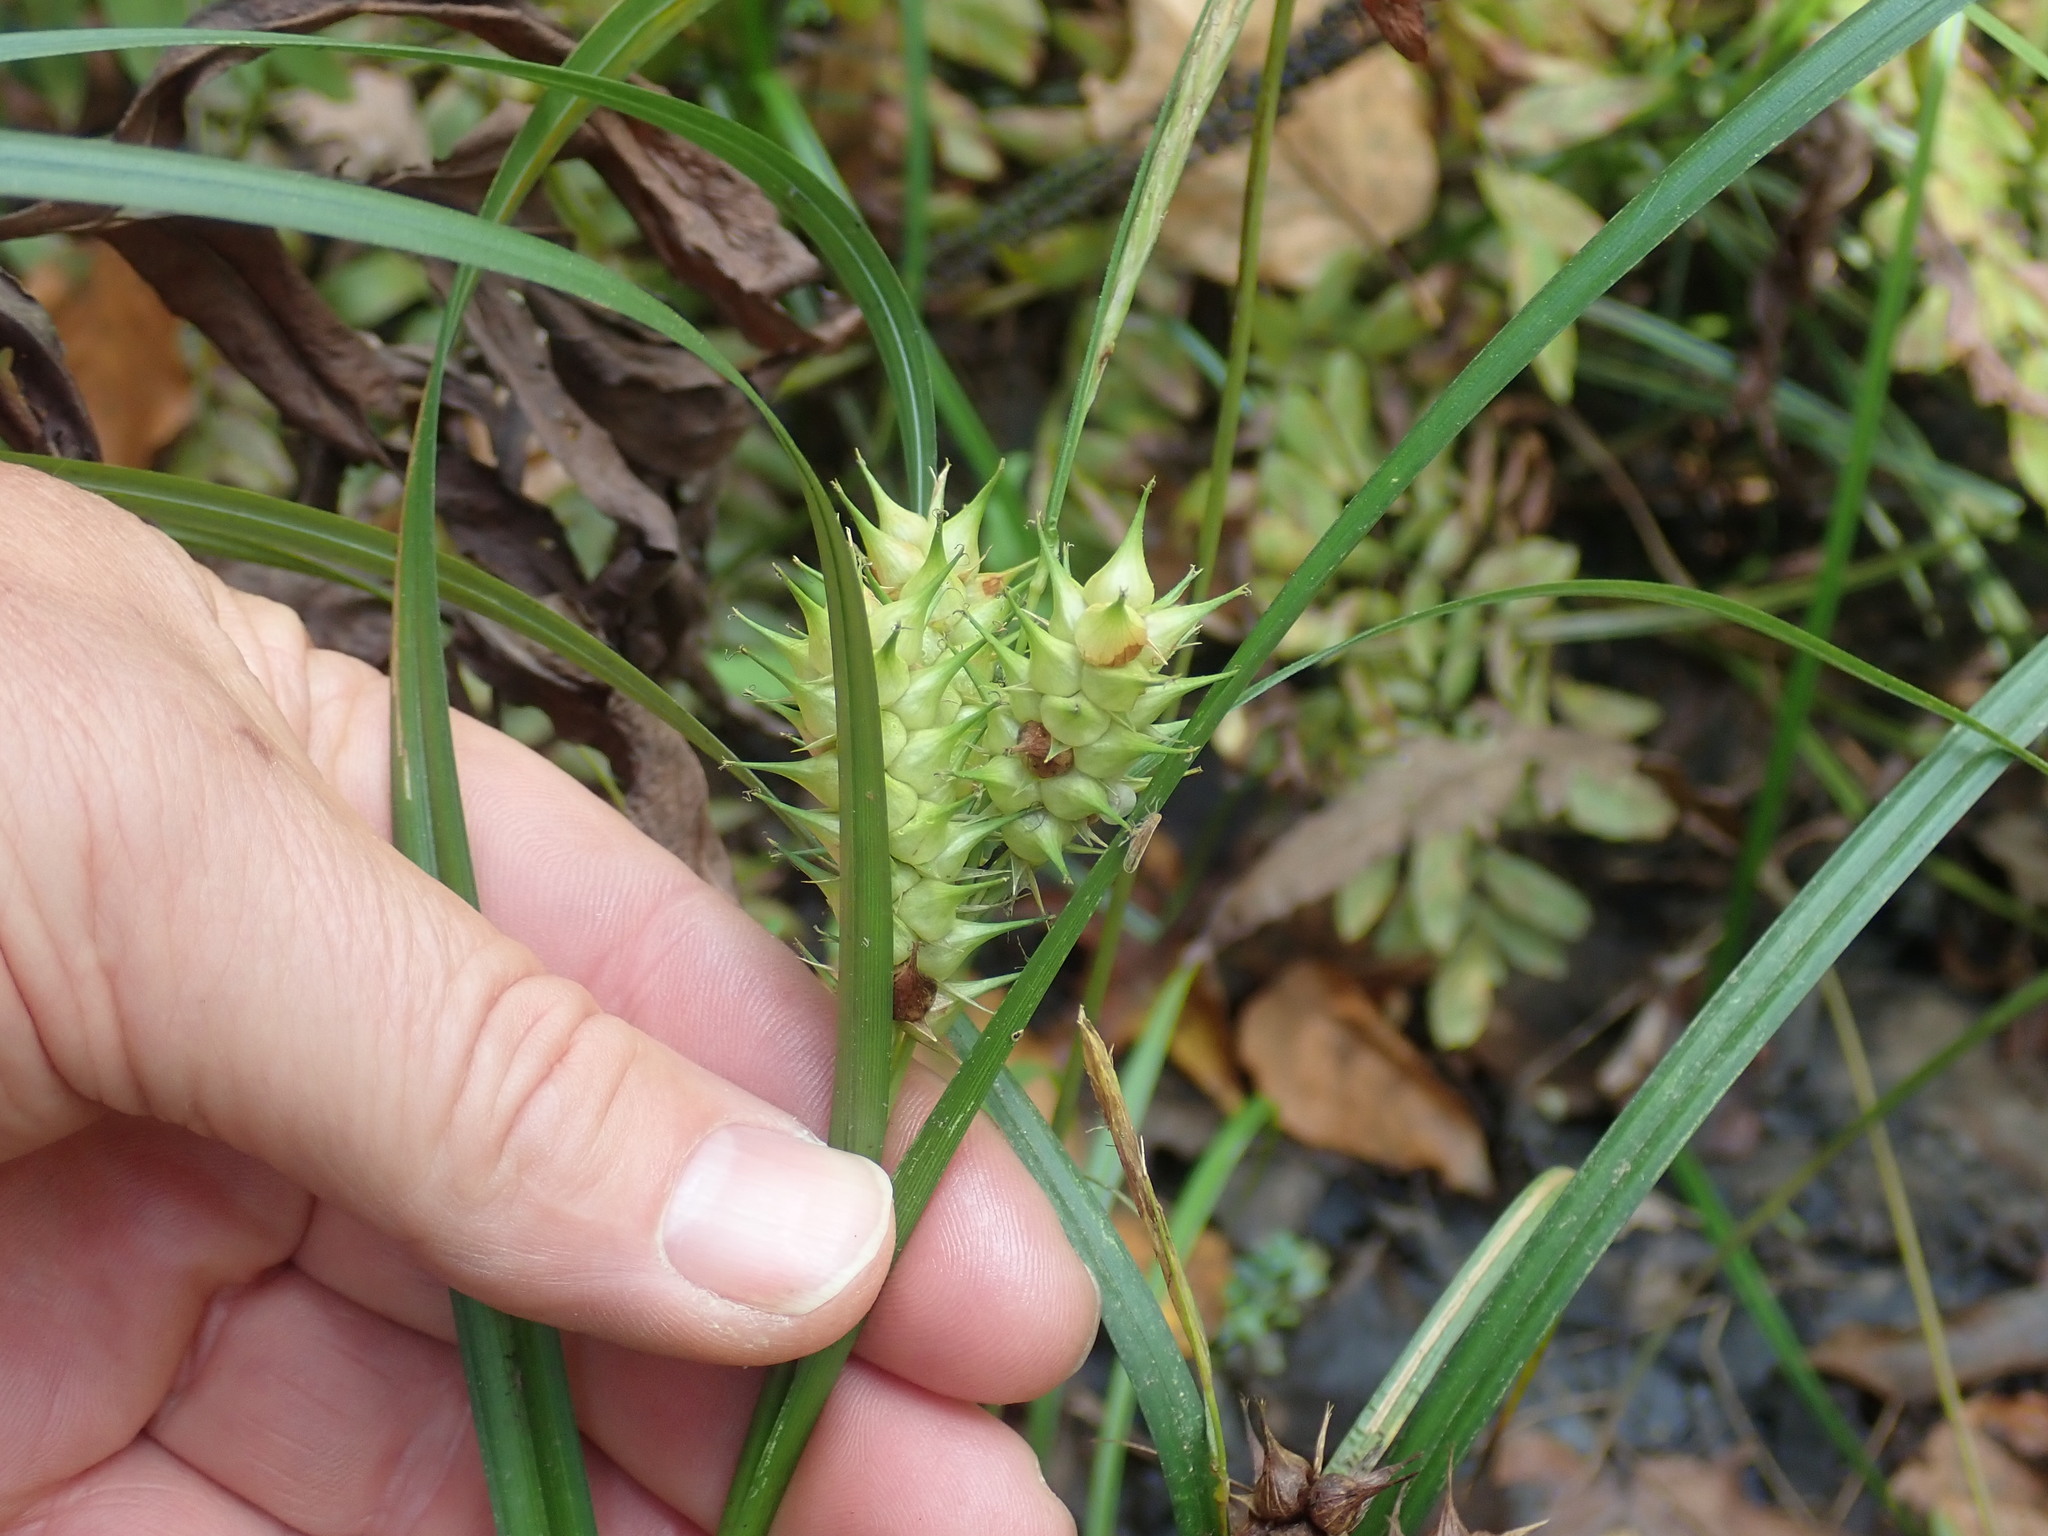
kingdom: Plantae
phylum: Tracheophyta
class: Liliopsida
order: Poales
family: Cyperaceae
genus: Carex
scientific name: Carex lupulina
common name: Hop sedge
